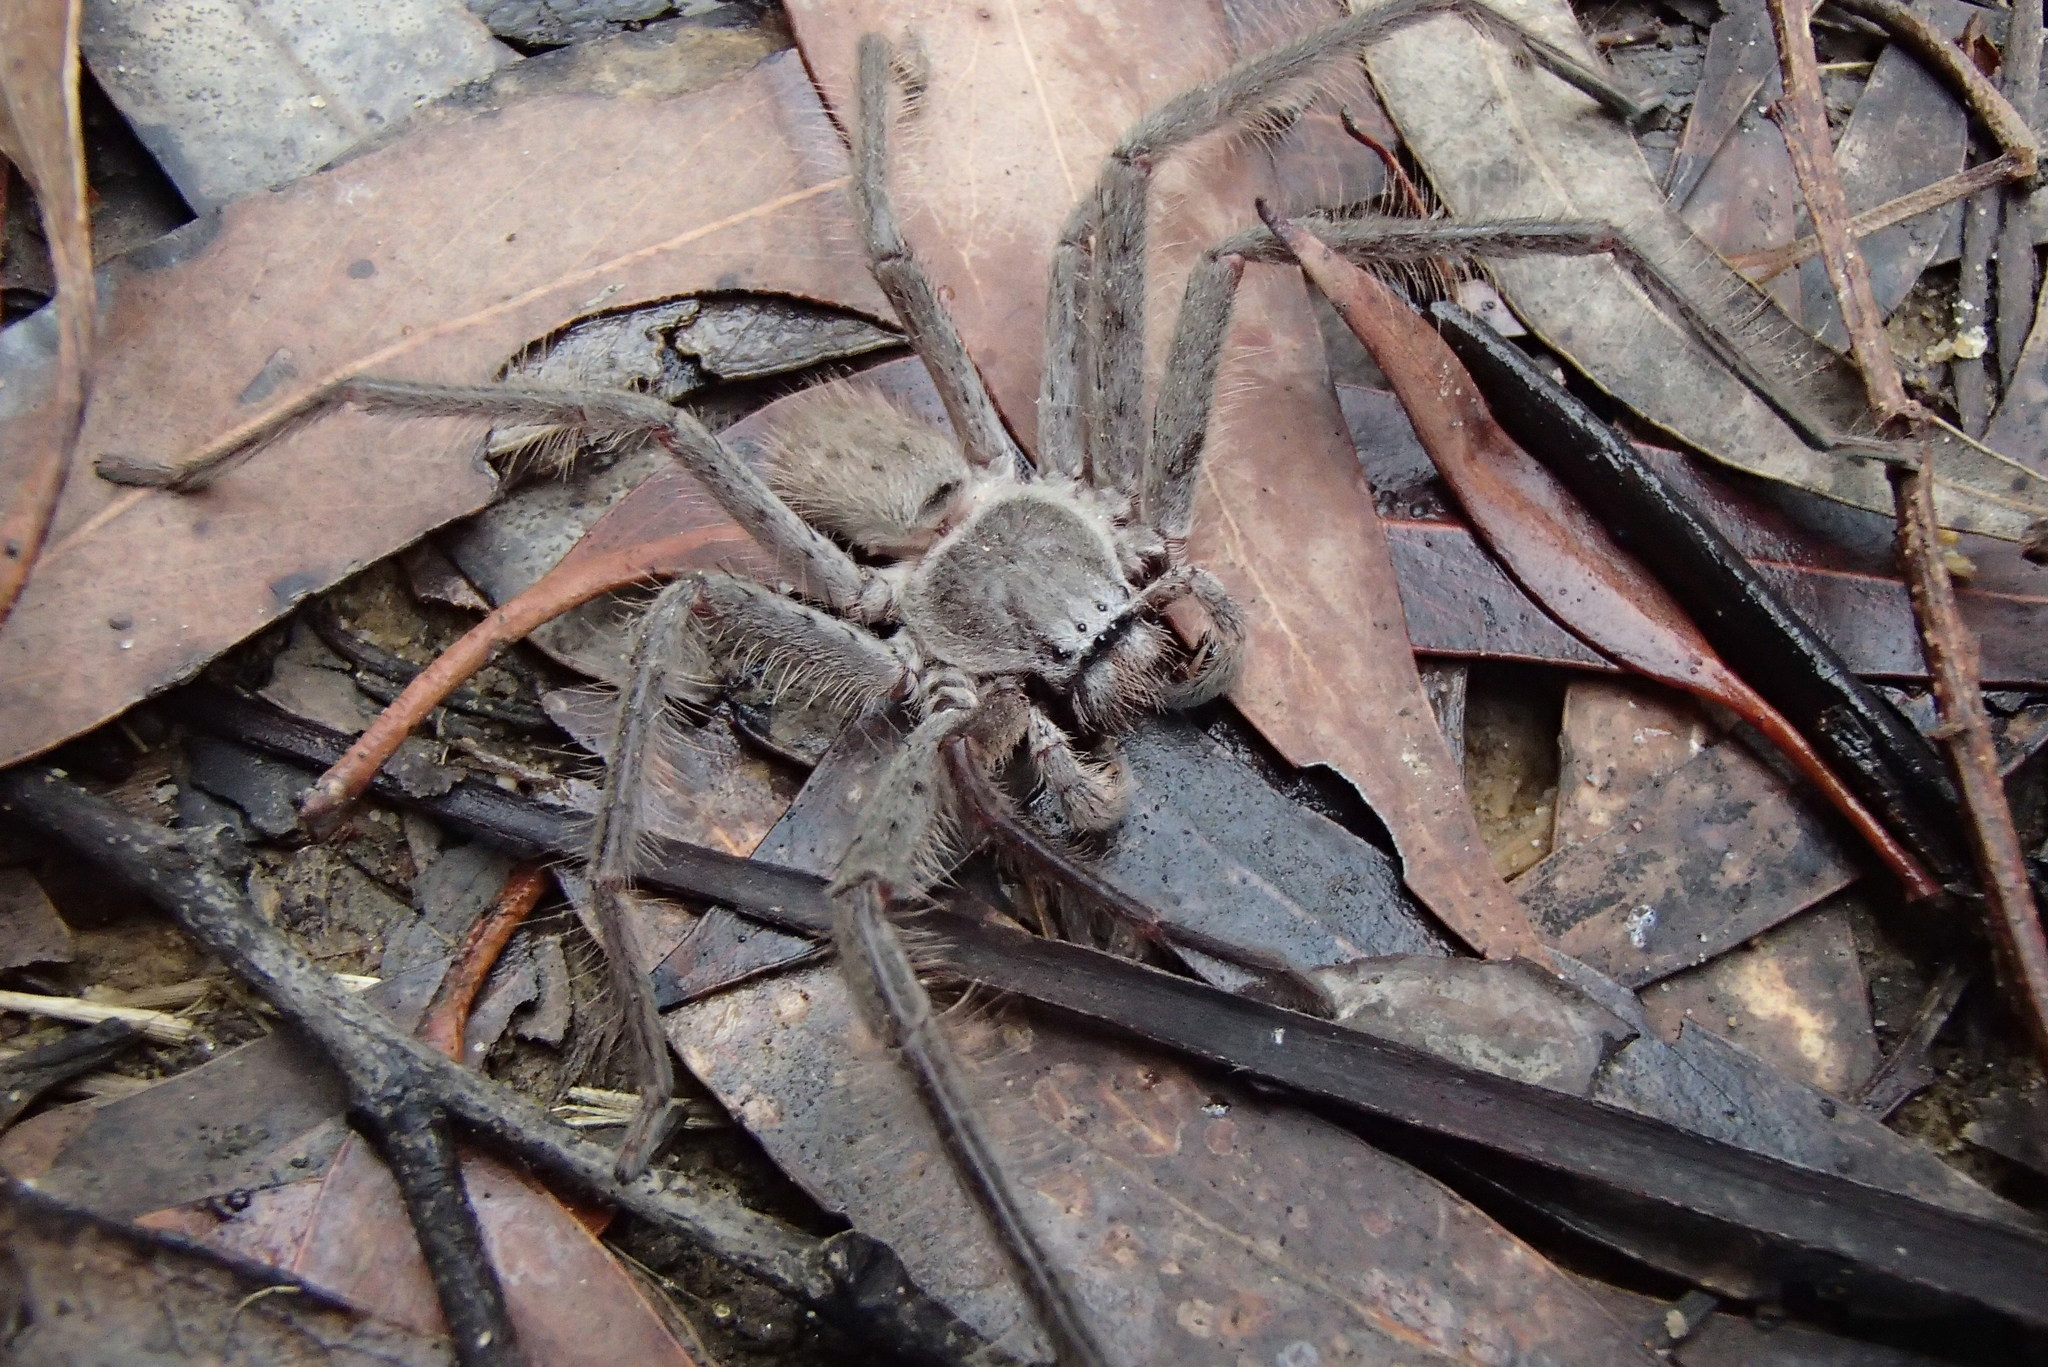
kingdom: Animalia
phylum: Arthropoda
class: Arachnida
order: Araneae
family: Sparassidae
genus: Isopeda
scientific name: Isopeda villosa
